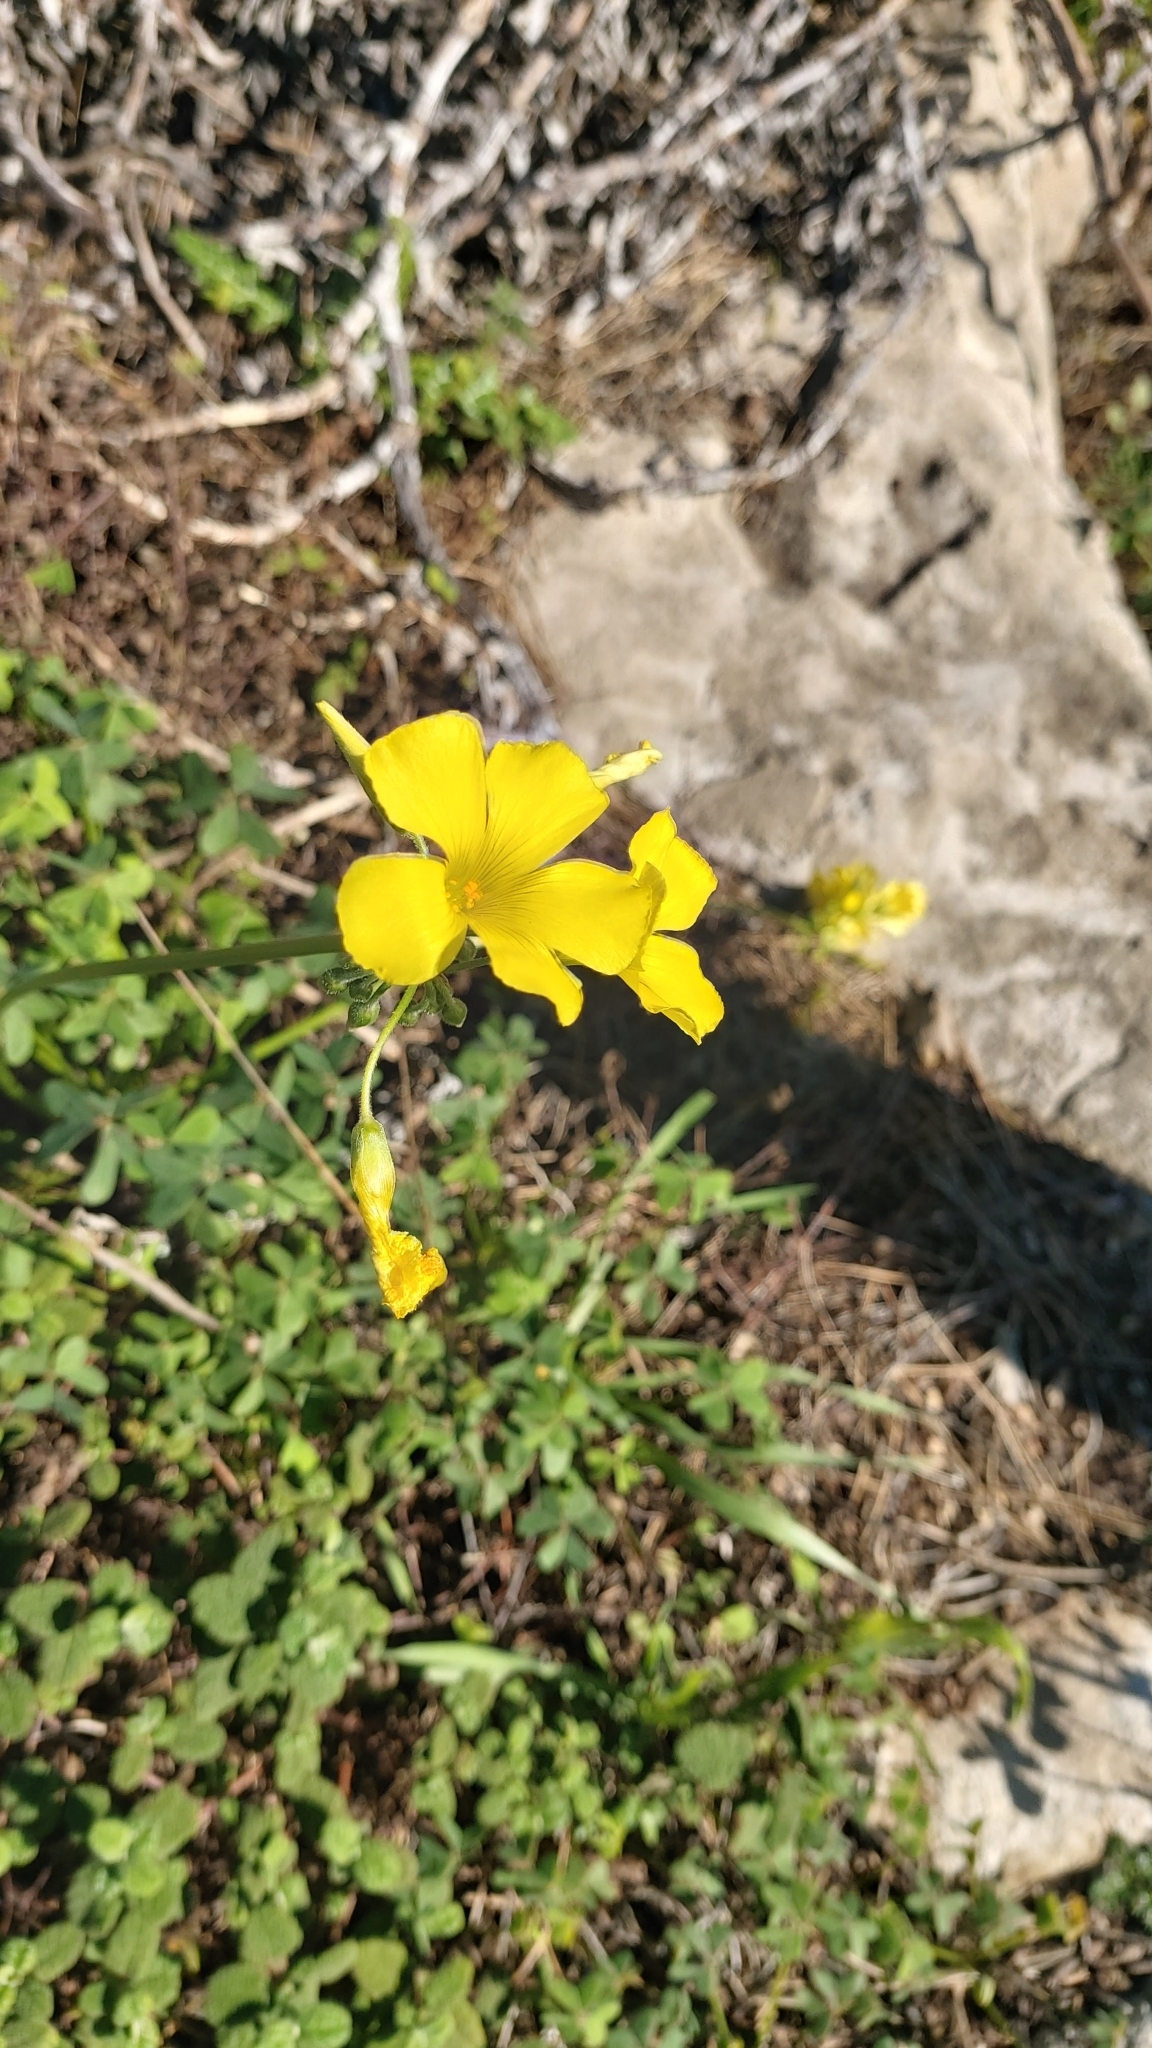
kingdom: Plantae
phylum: Tracheophyta
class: Magnoliopsida
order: Oxalidales
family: Oxalidaceae
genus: Oxalis
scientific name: Oxalis pes-caprae
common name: Bermuda-buttercup
